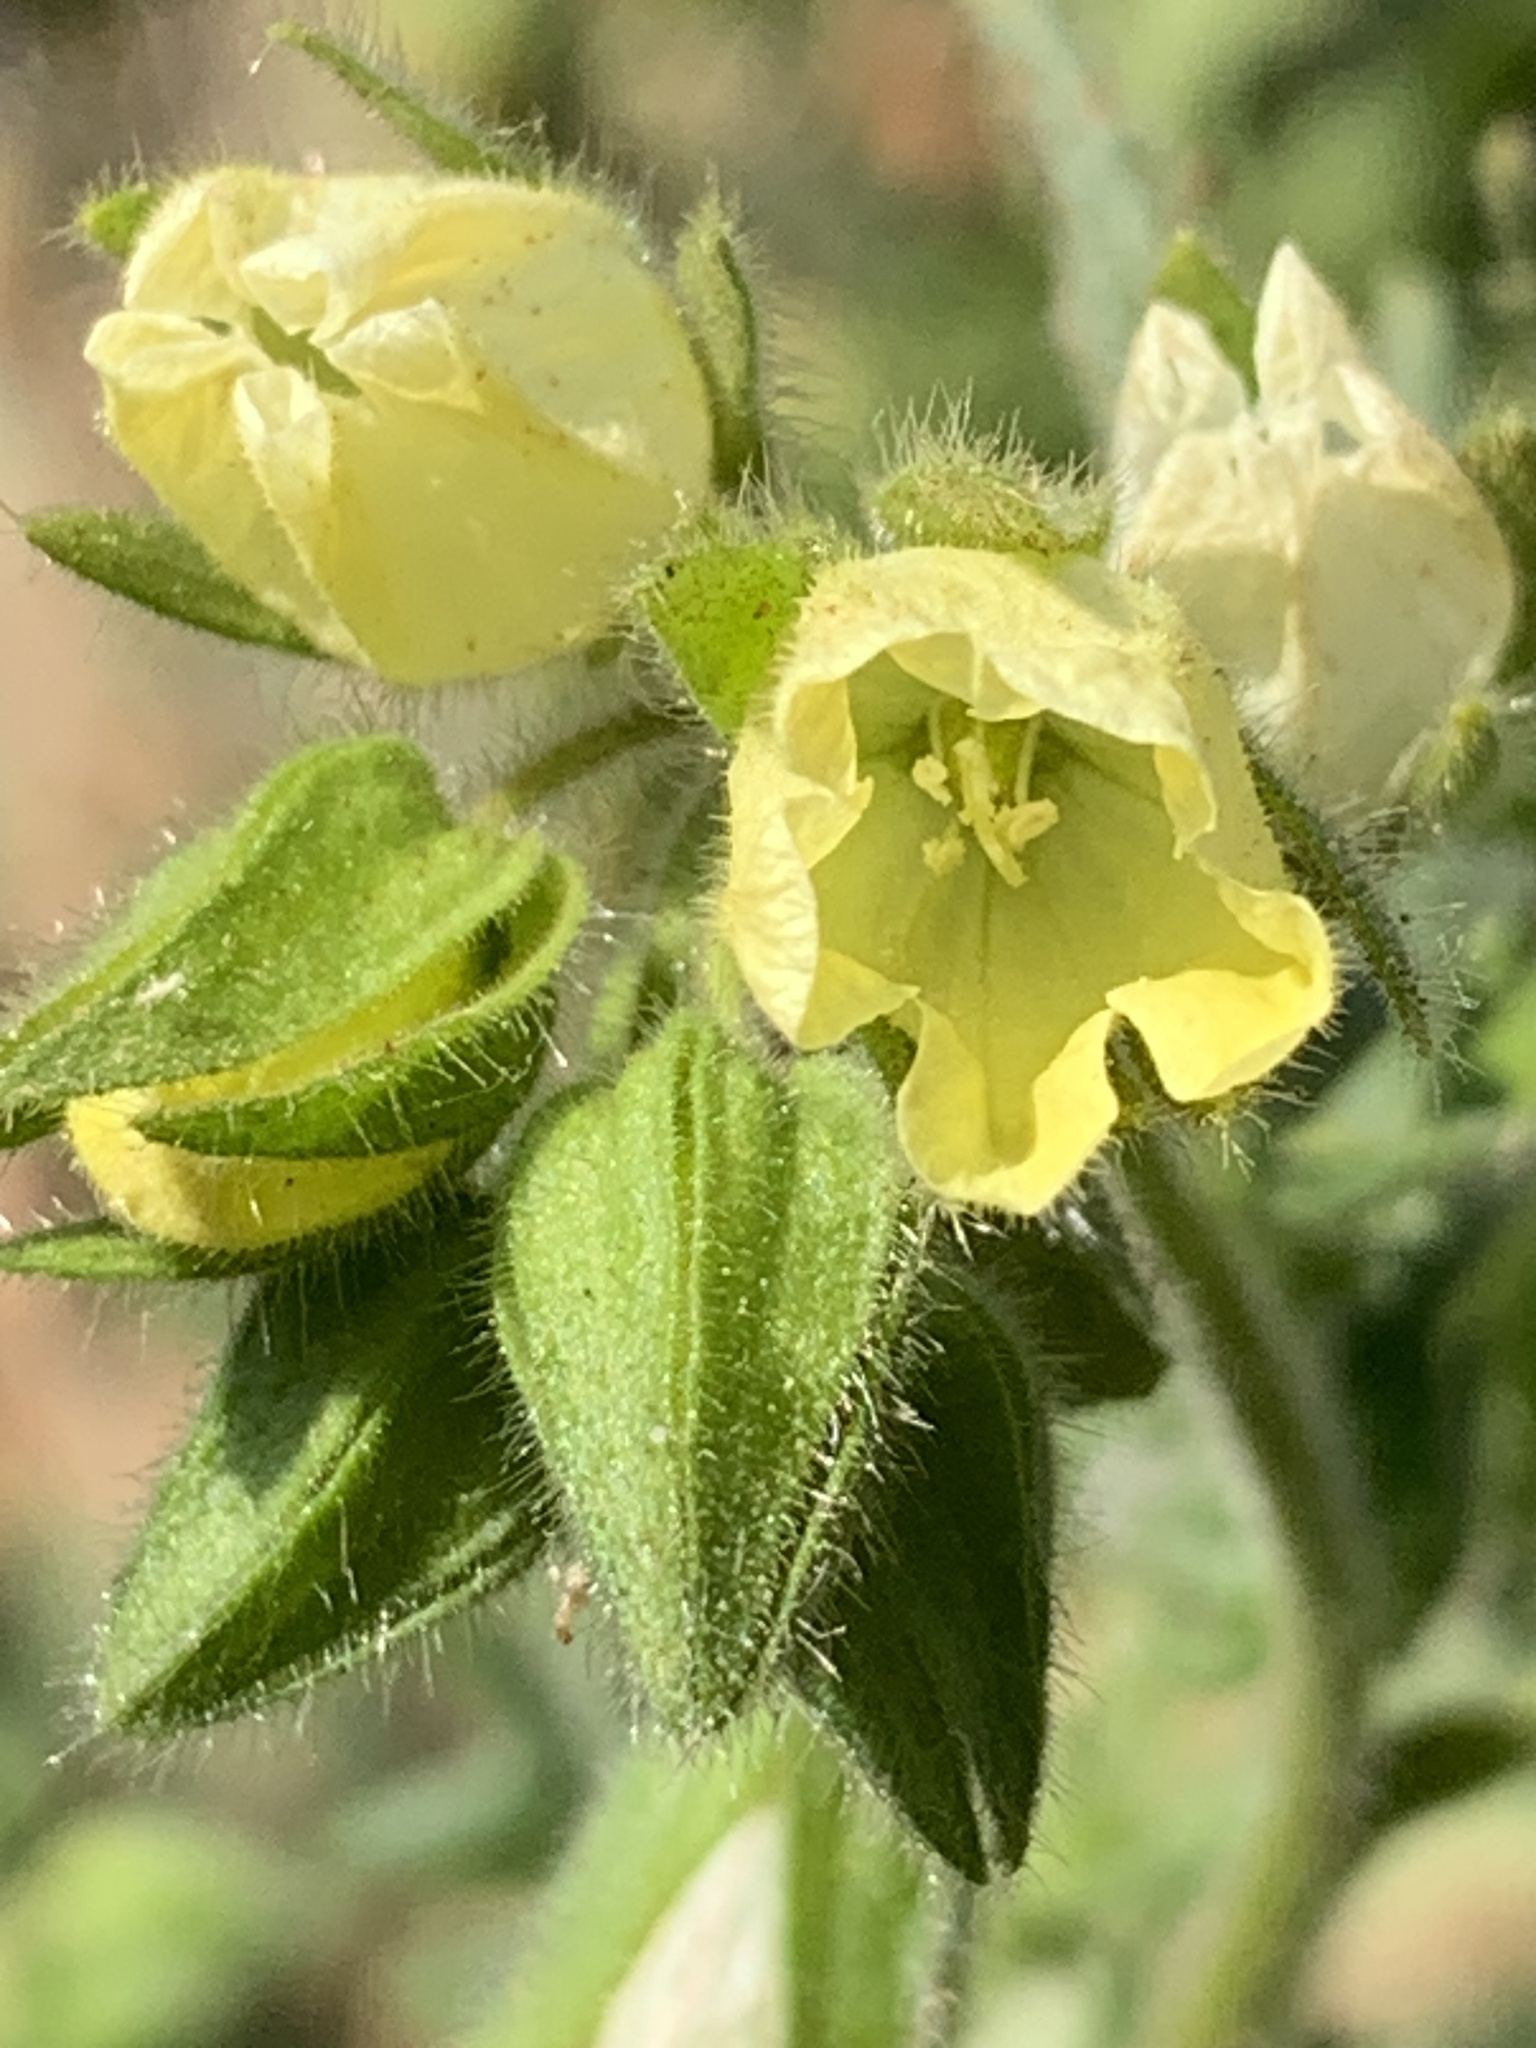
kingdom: Plantae
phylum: Tracheophyta
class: Magnoliopsida
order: Boraginales
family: Hydrophyllaceae
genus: Emmenanthe
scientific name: Emmenanthe penduliflora
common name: Whispering-bells
